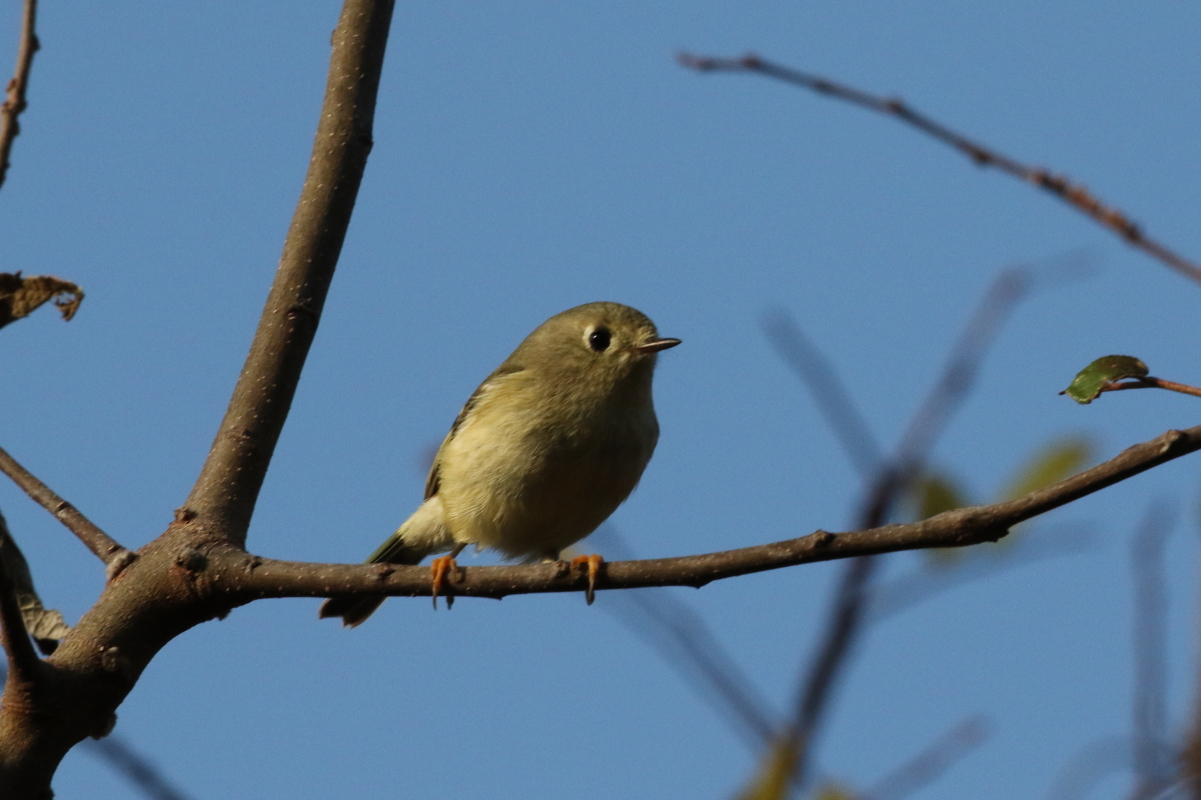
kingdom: Animalia
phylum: Chordata
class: Aves
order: Passeriformes
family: Regulidae
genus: Regulus
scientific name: Regulus calendula
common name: Ruby-crowned kinglet
